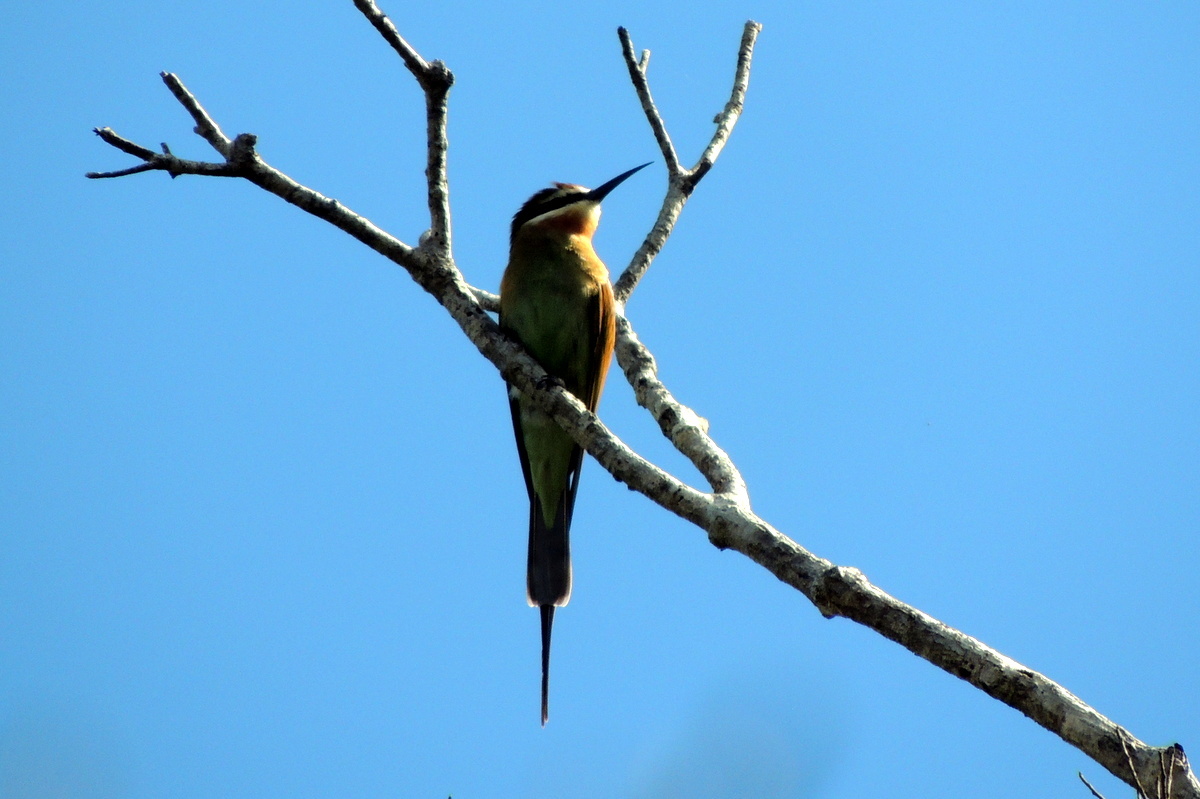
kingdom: Animalia
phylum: Chordata
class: Aves
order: Coraciiformes
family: Meropidae
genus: Merops
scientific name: Merops superciliosus
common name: Olive bee-eater
